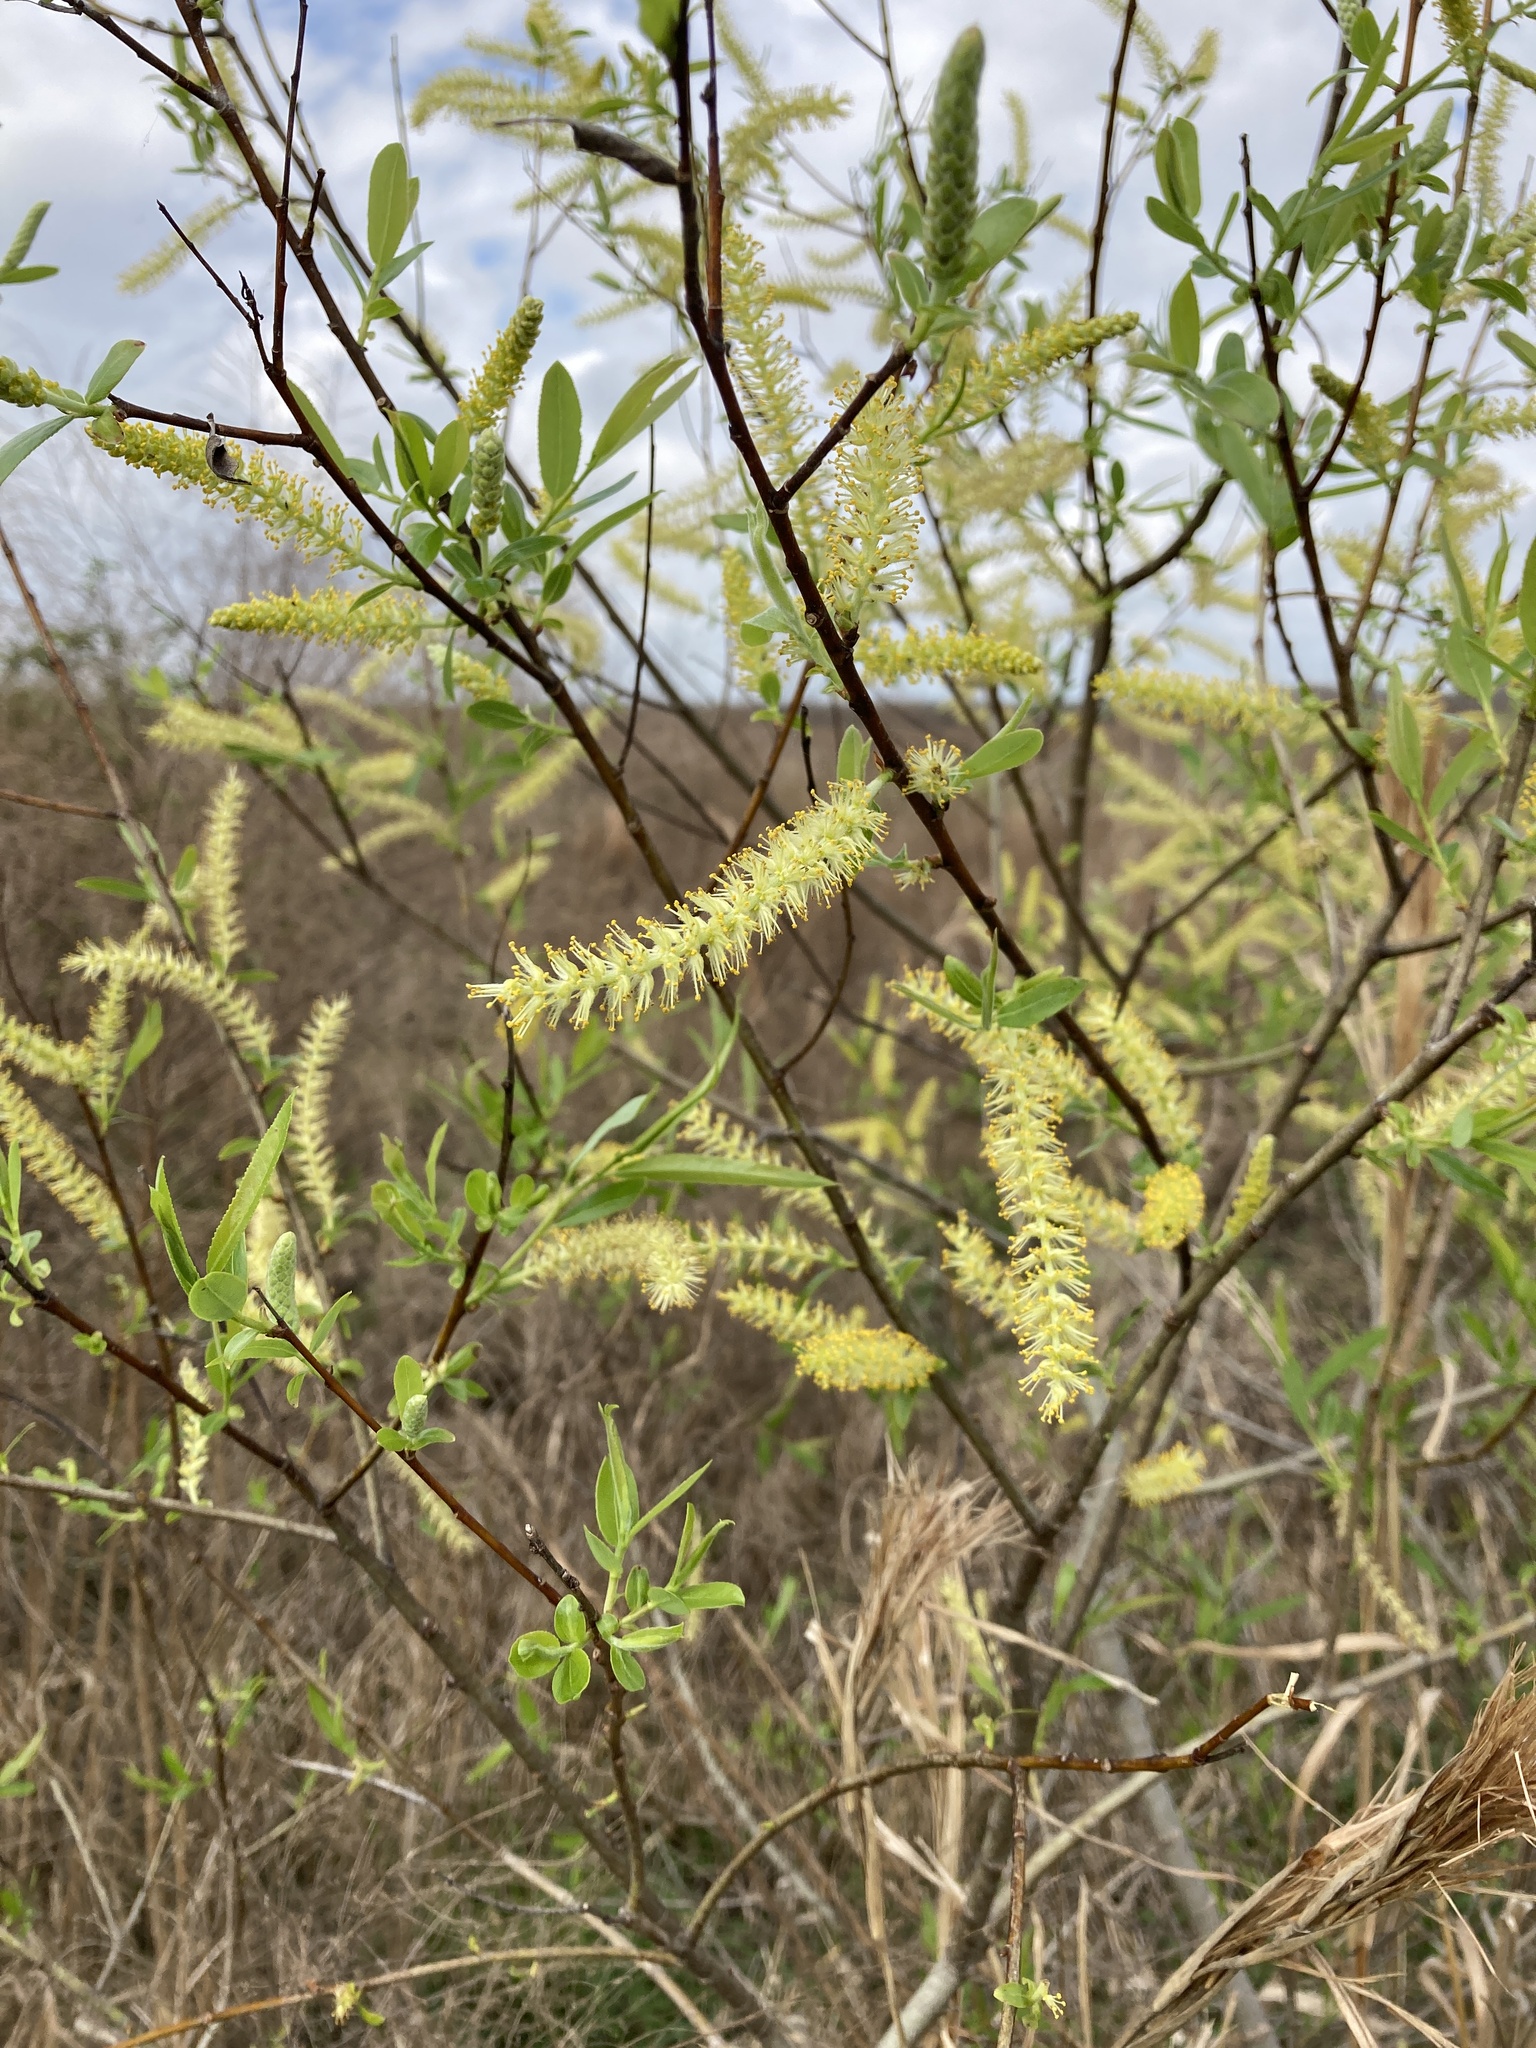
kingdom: Plantae
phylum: Tracheophyta
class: Magnoliopsida
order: Malpighiales
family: Salicaceae
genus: Salix
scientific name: Salix caroliniana
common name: Carolina willow
